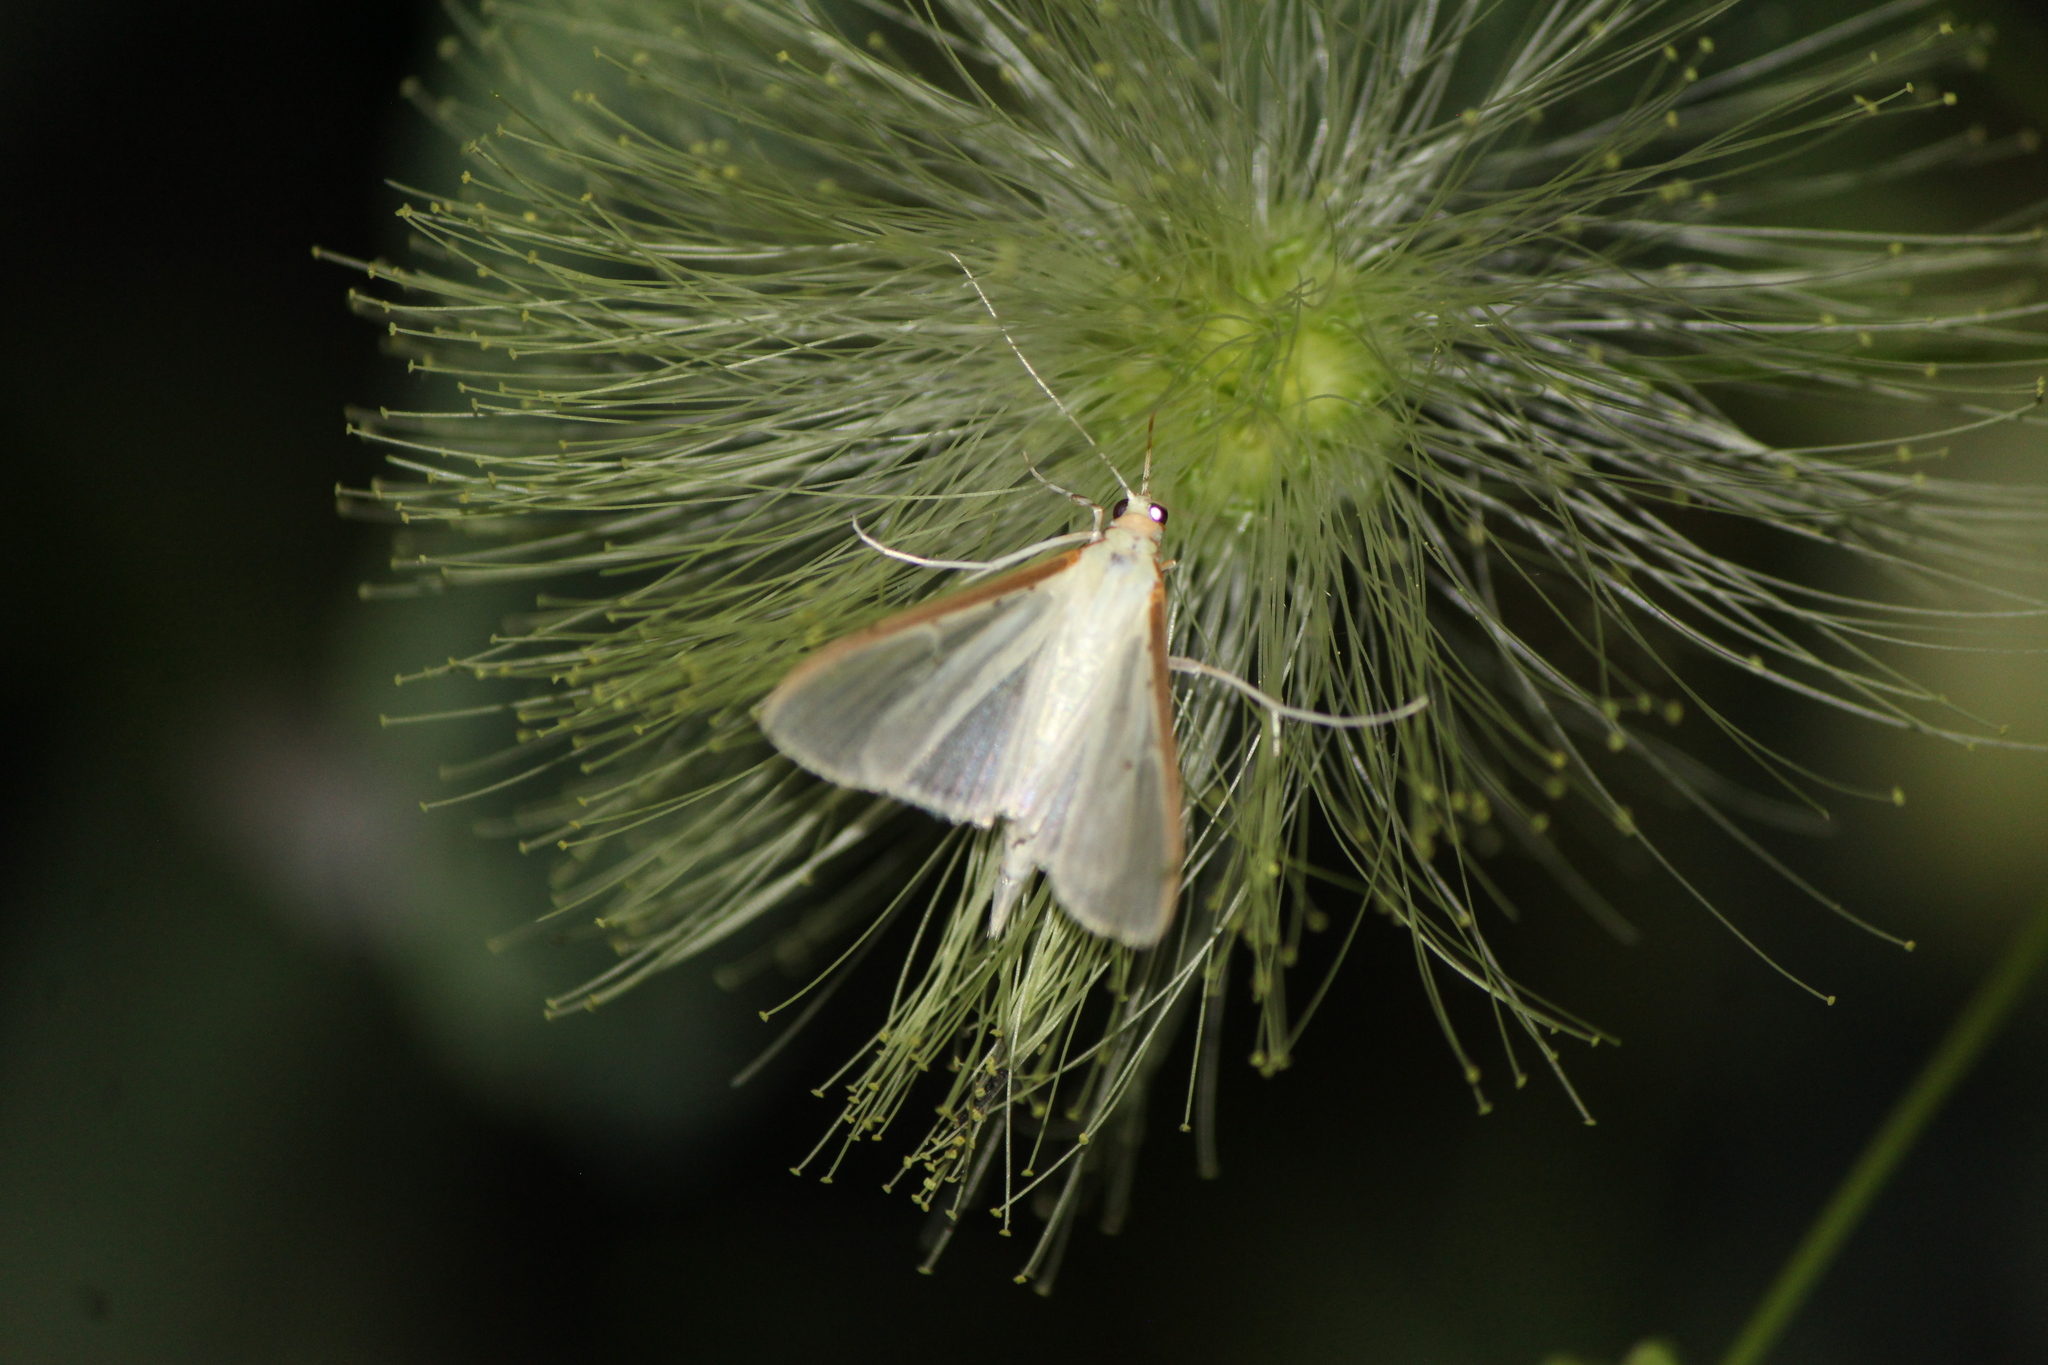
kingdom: Animalia
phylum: Arthropoda
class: Insecta
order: Lepidoptera
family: Crambidae
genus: Palpita
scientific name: Palpita quadristigmalis
